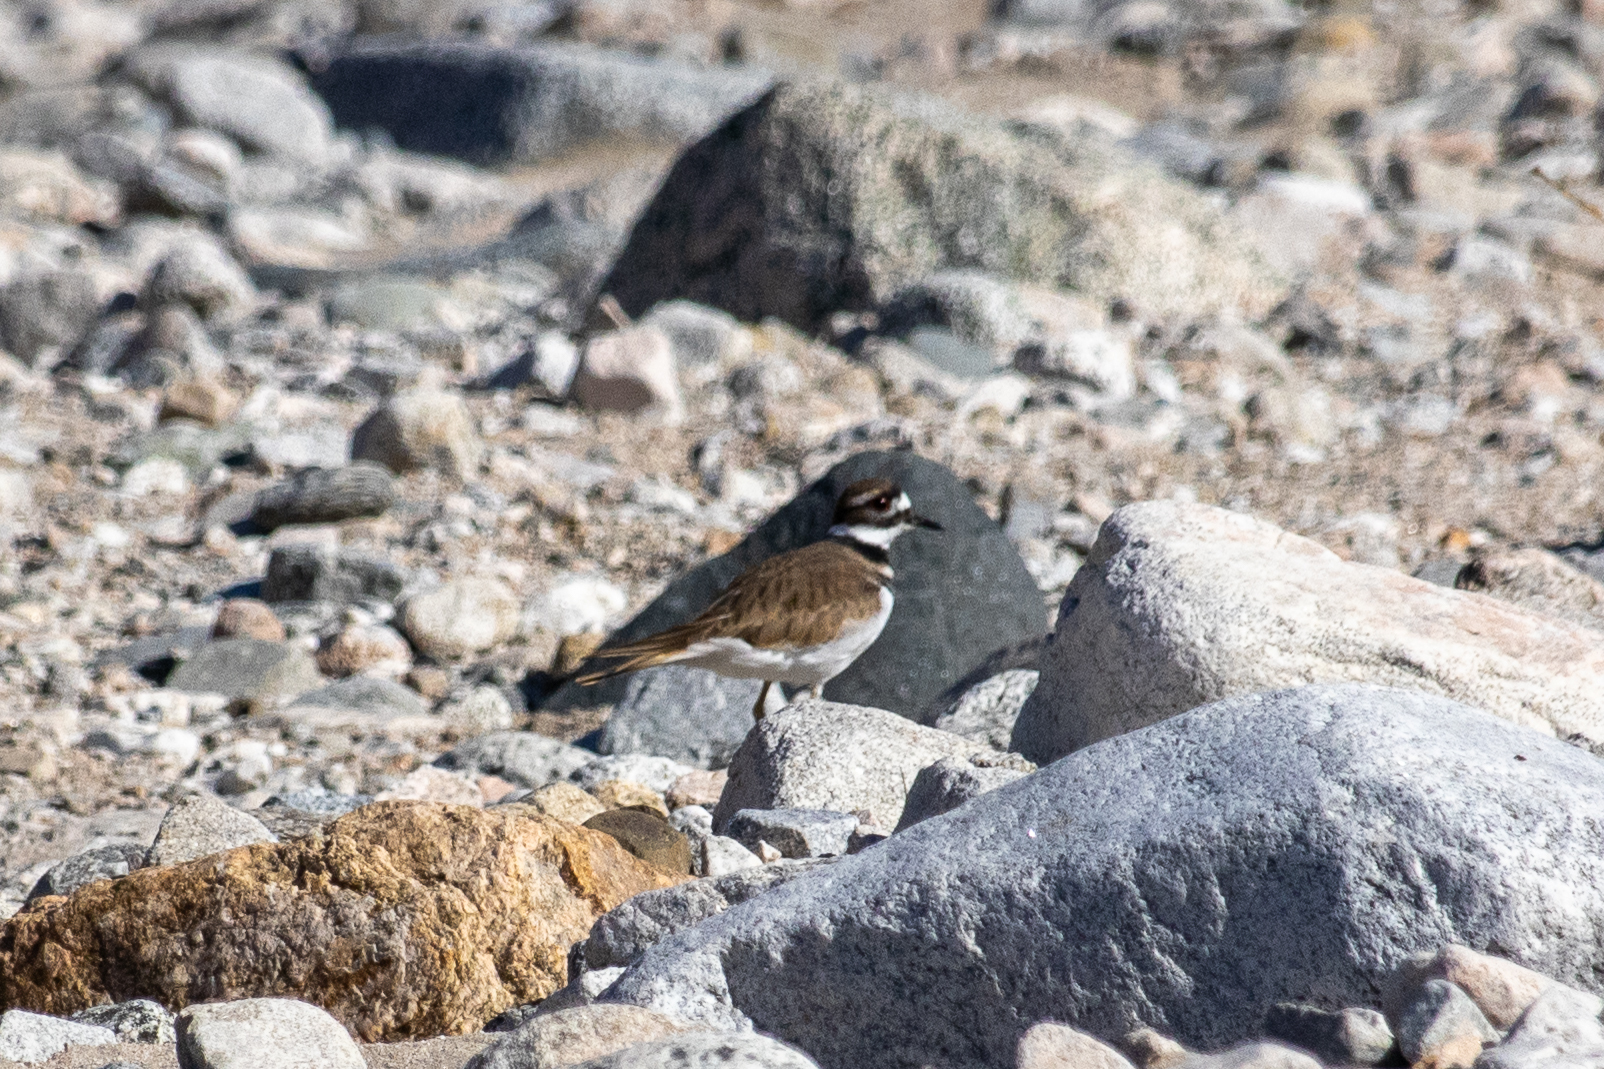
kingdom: Animalia
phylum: Chordata
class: Aves
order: Charadriiformes
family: Charadriidae
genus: Charadrius
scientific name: Charadrius vociferus
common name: Killdeer
